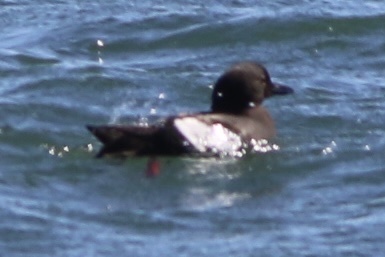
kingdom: Animalia
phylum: Chordata
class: Aves
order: Charadriiformes
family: Alcidae
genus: Cepphus
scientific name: Cepphus columba
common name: Pigeon guillemot
